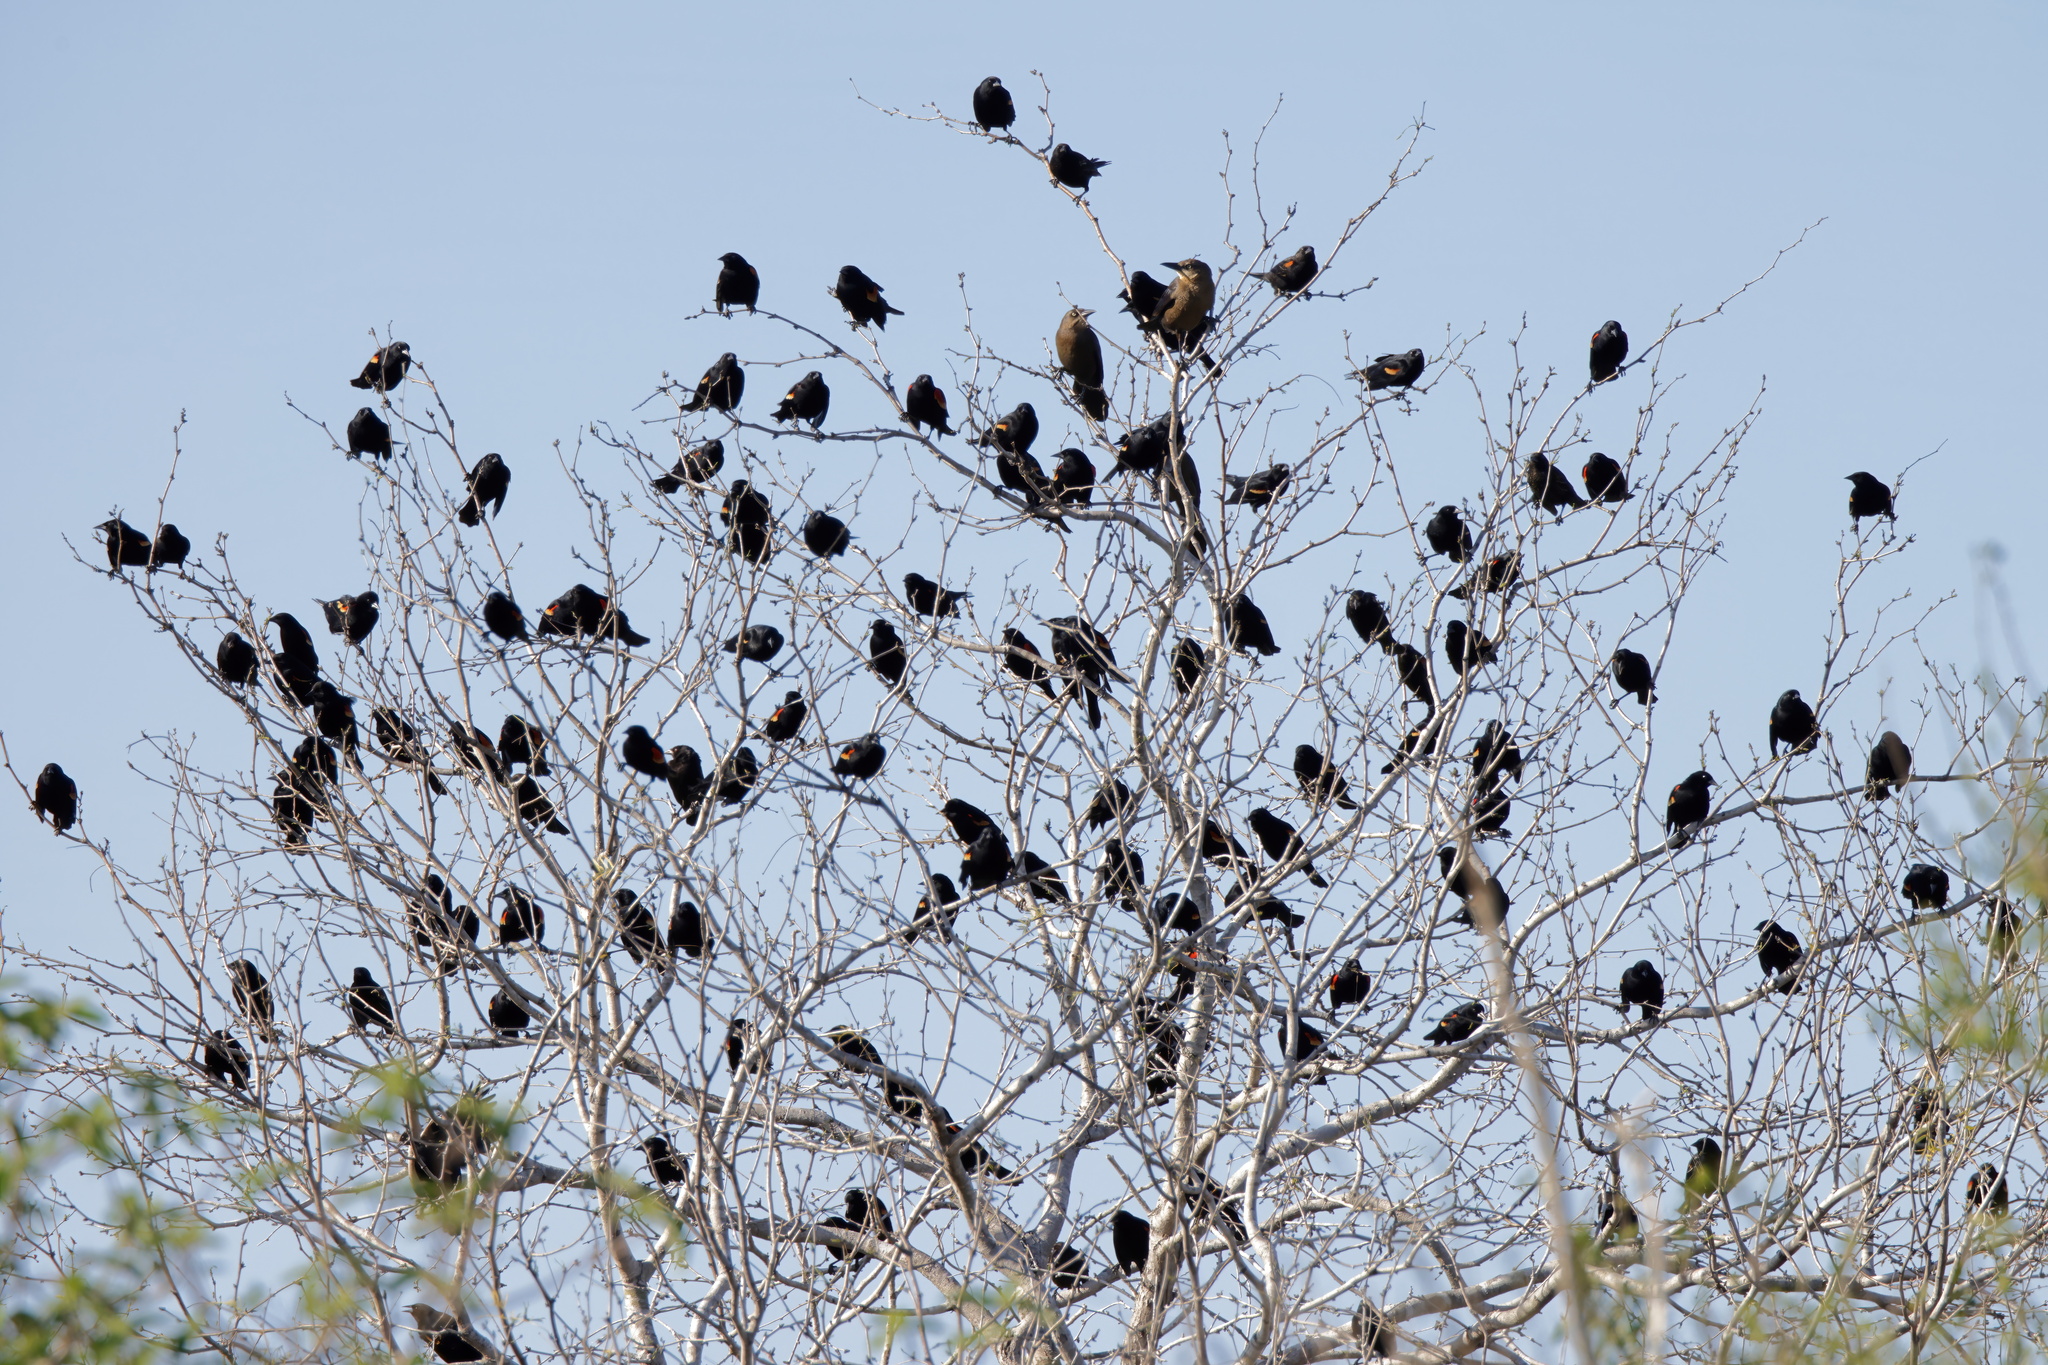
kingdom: Animalia
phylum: Chordata
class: Aves
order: Passeriformes
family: Icteridae
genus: Agelaius
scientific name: Agelaius phoeniceus
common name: Red-winged blackbird
